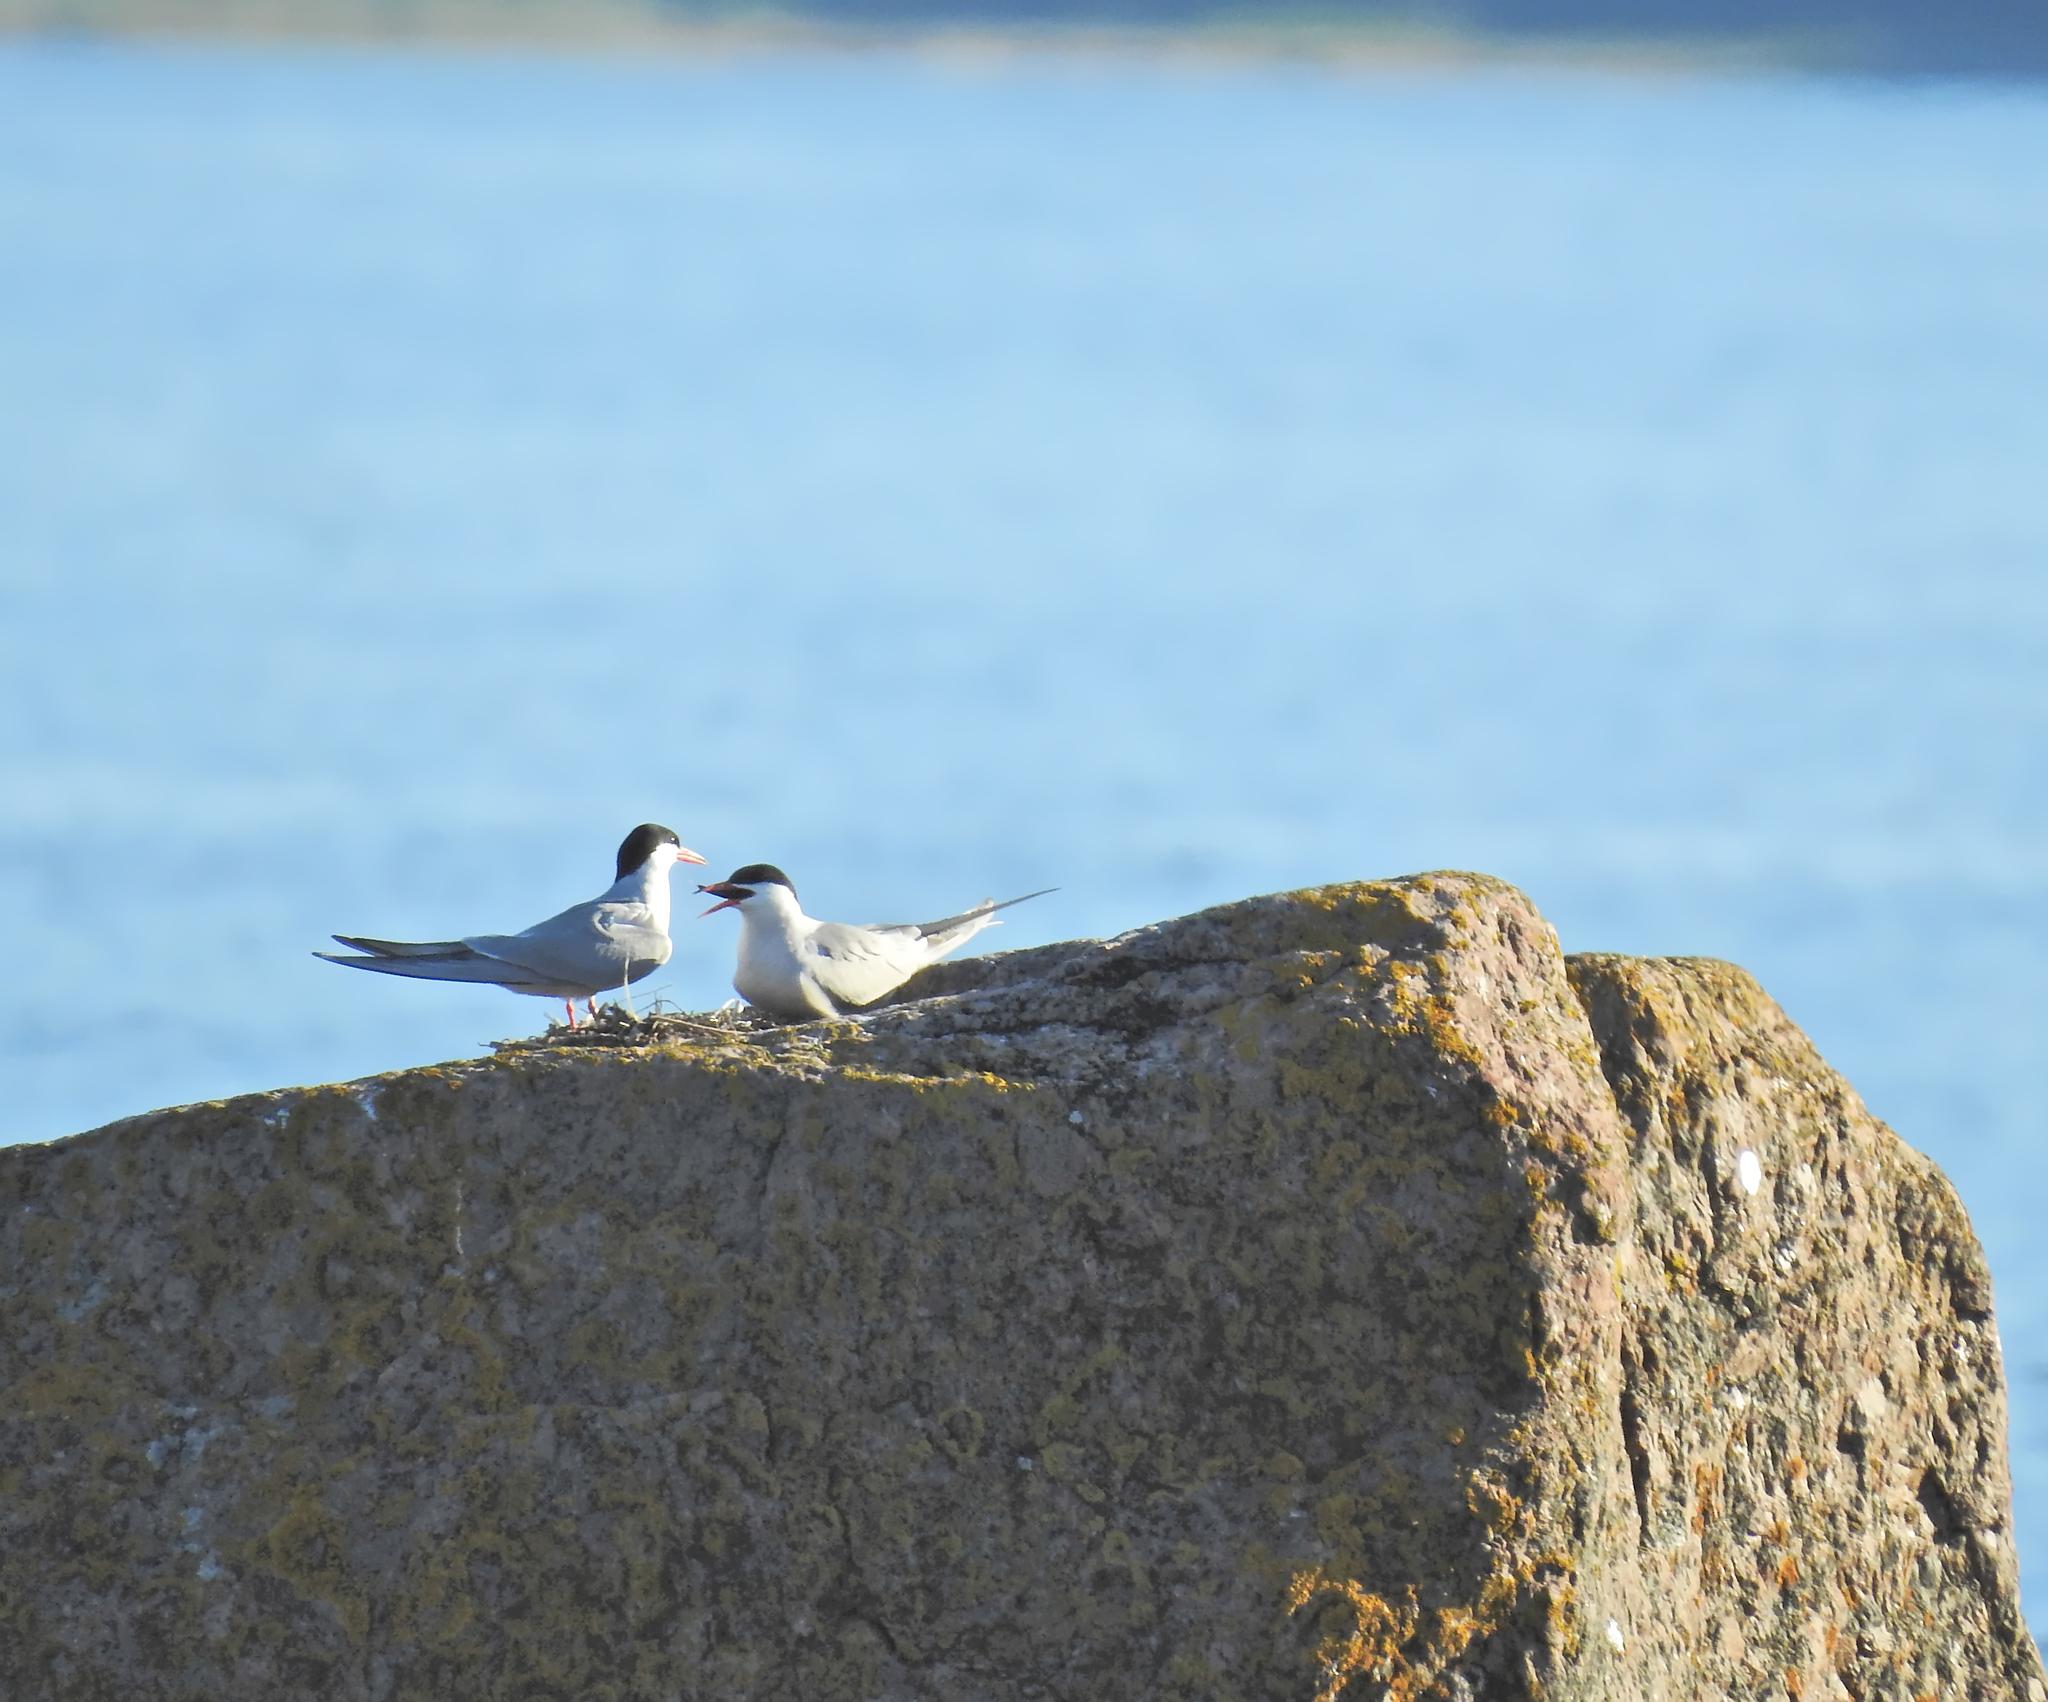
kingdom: Animalia
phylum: Chordata
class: Aves
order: Charadriiformes
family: Laridae
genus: Sterna
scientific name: Sterna hirundo
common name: Common tern
